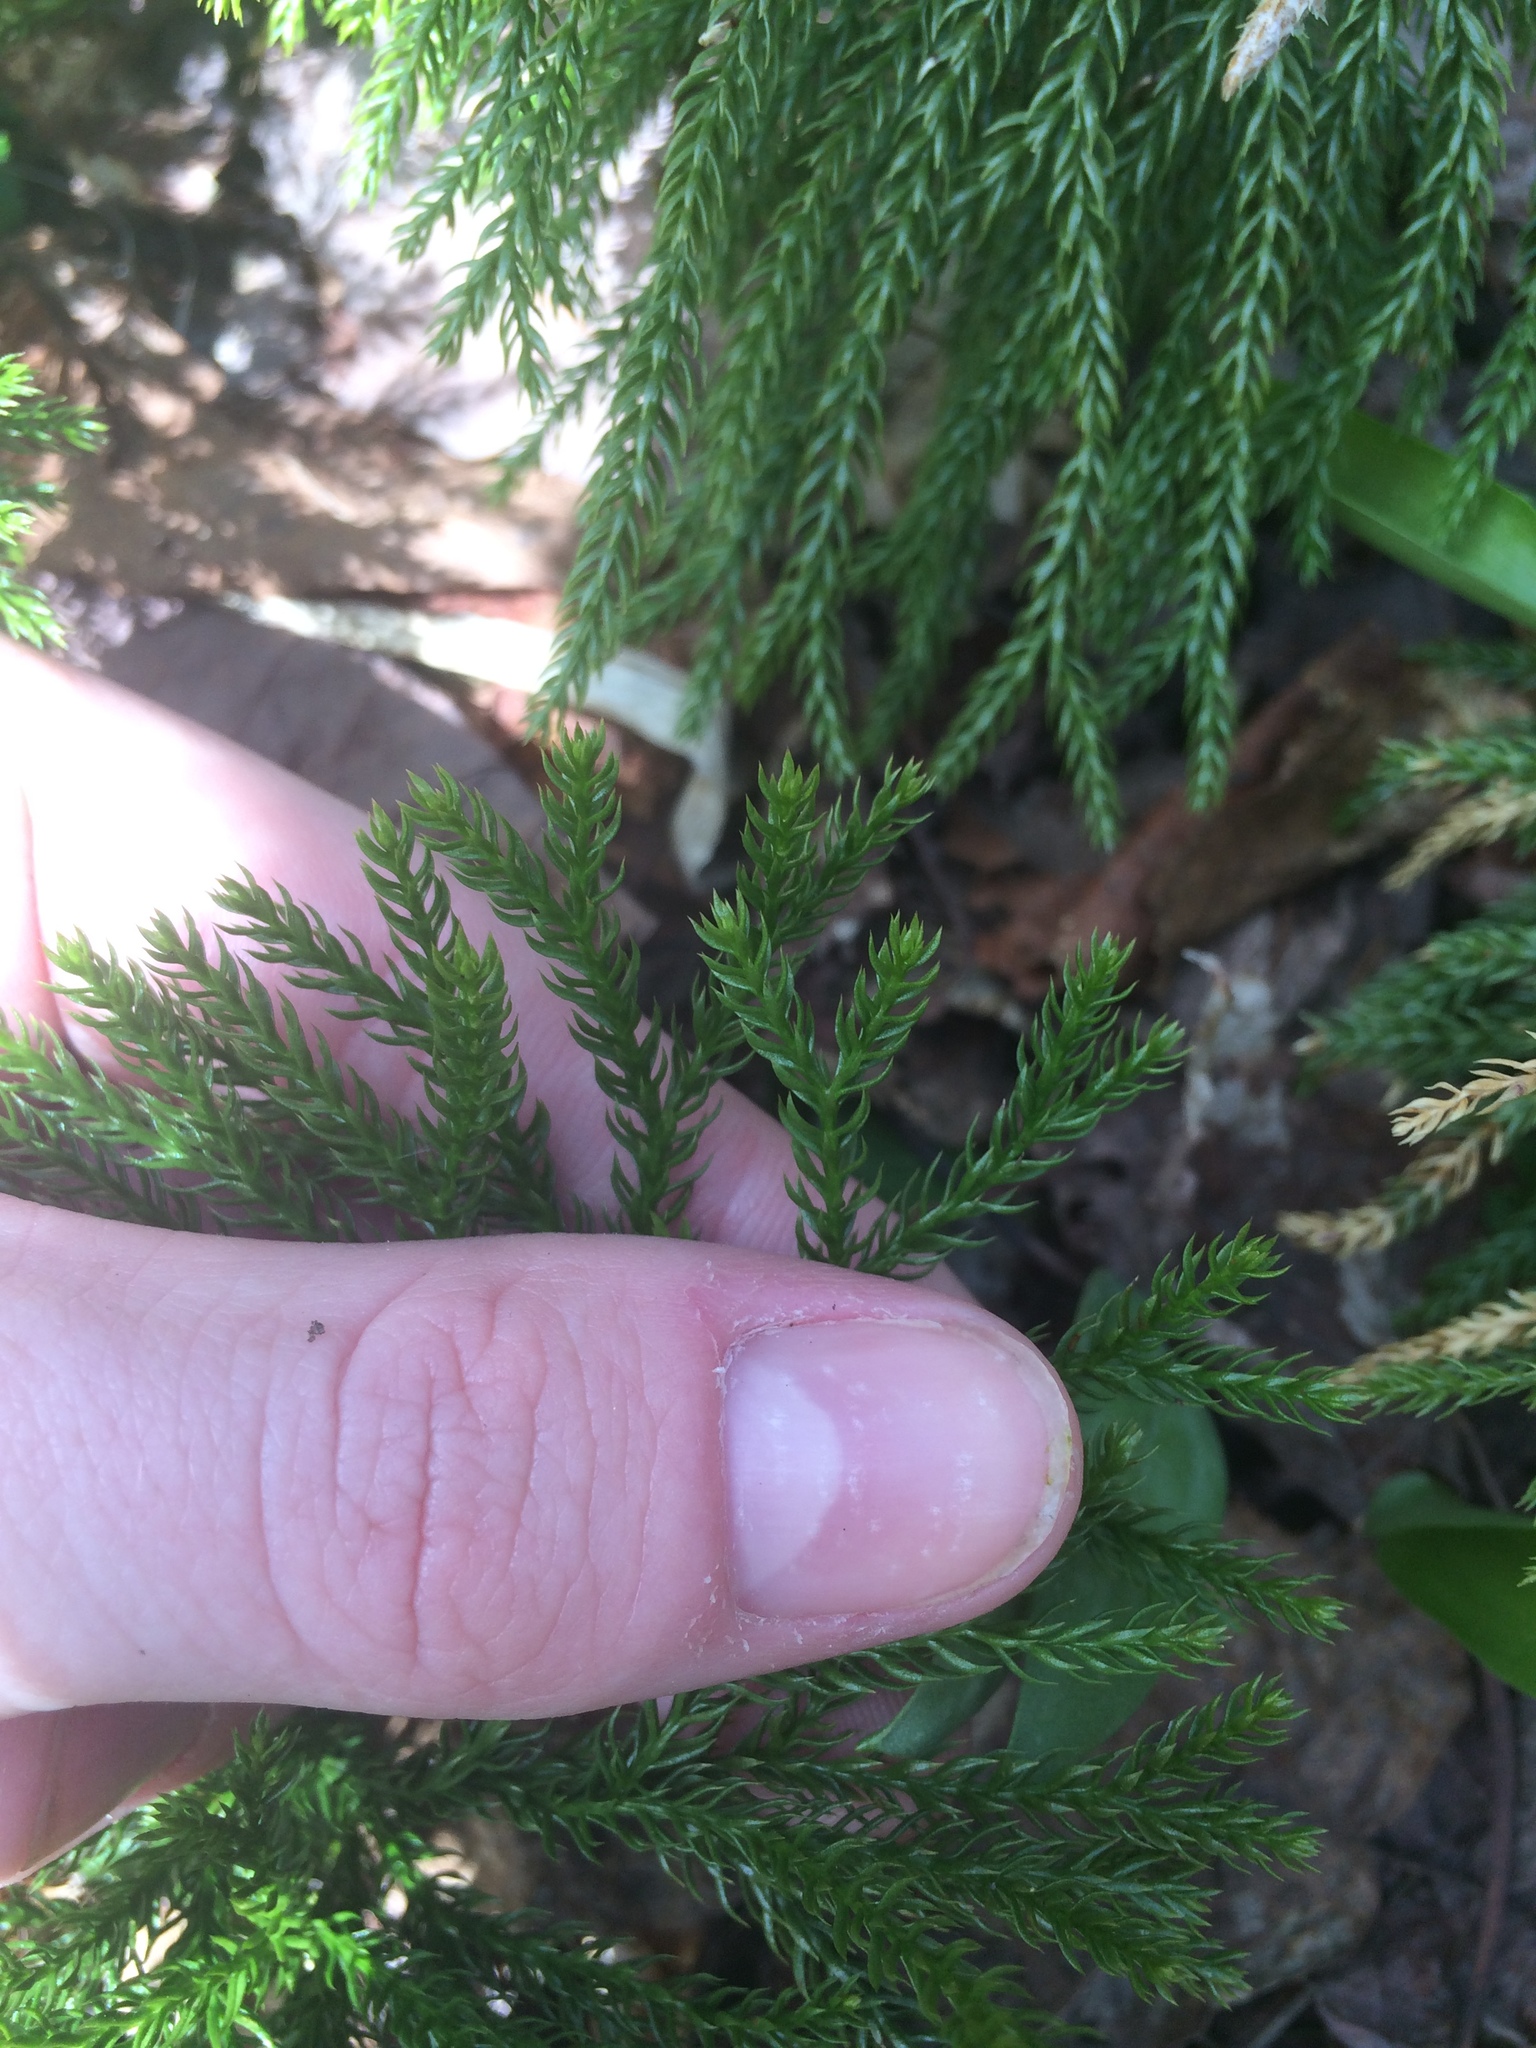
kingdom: Plantae
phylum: Tracheophyta
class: Lycopodiopsida
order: Lycopodiales
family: Lycopodiaceae
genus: Dendrolycopodium
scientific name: Dendrolycopodium hickeyi
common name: Hickey's clubmoss
